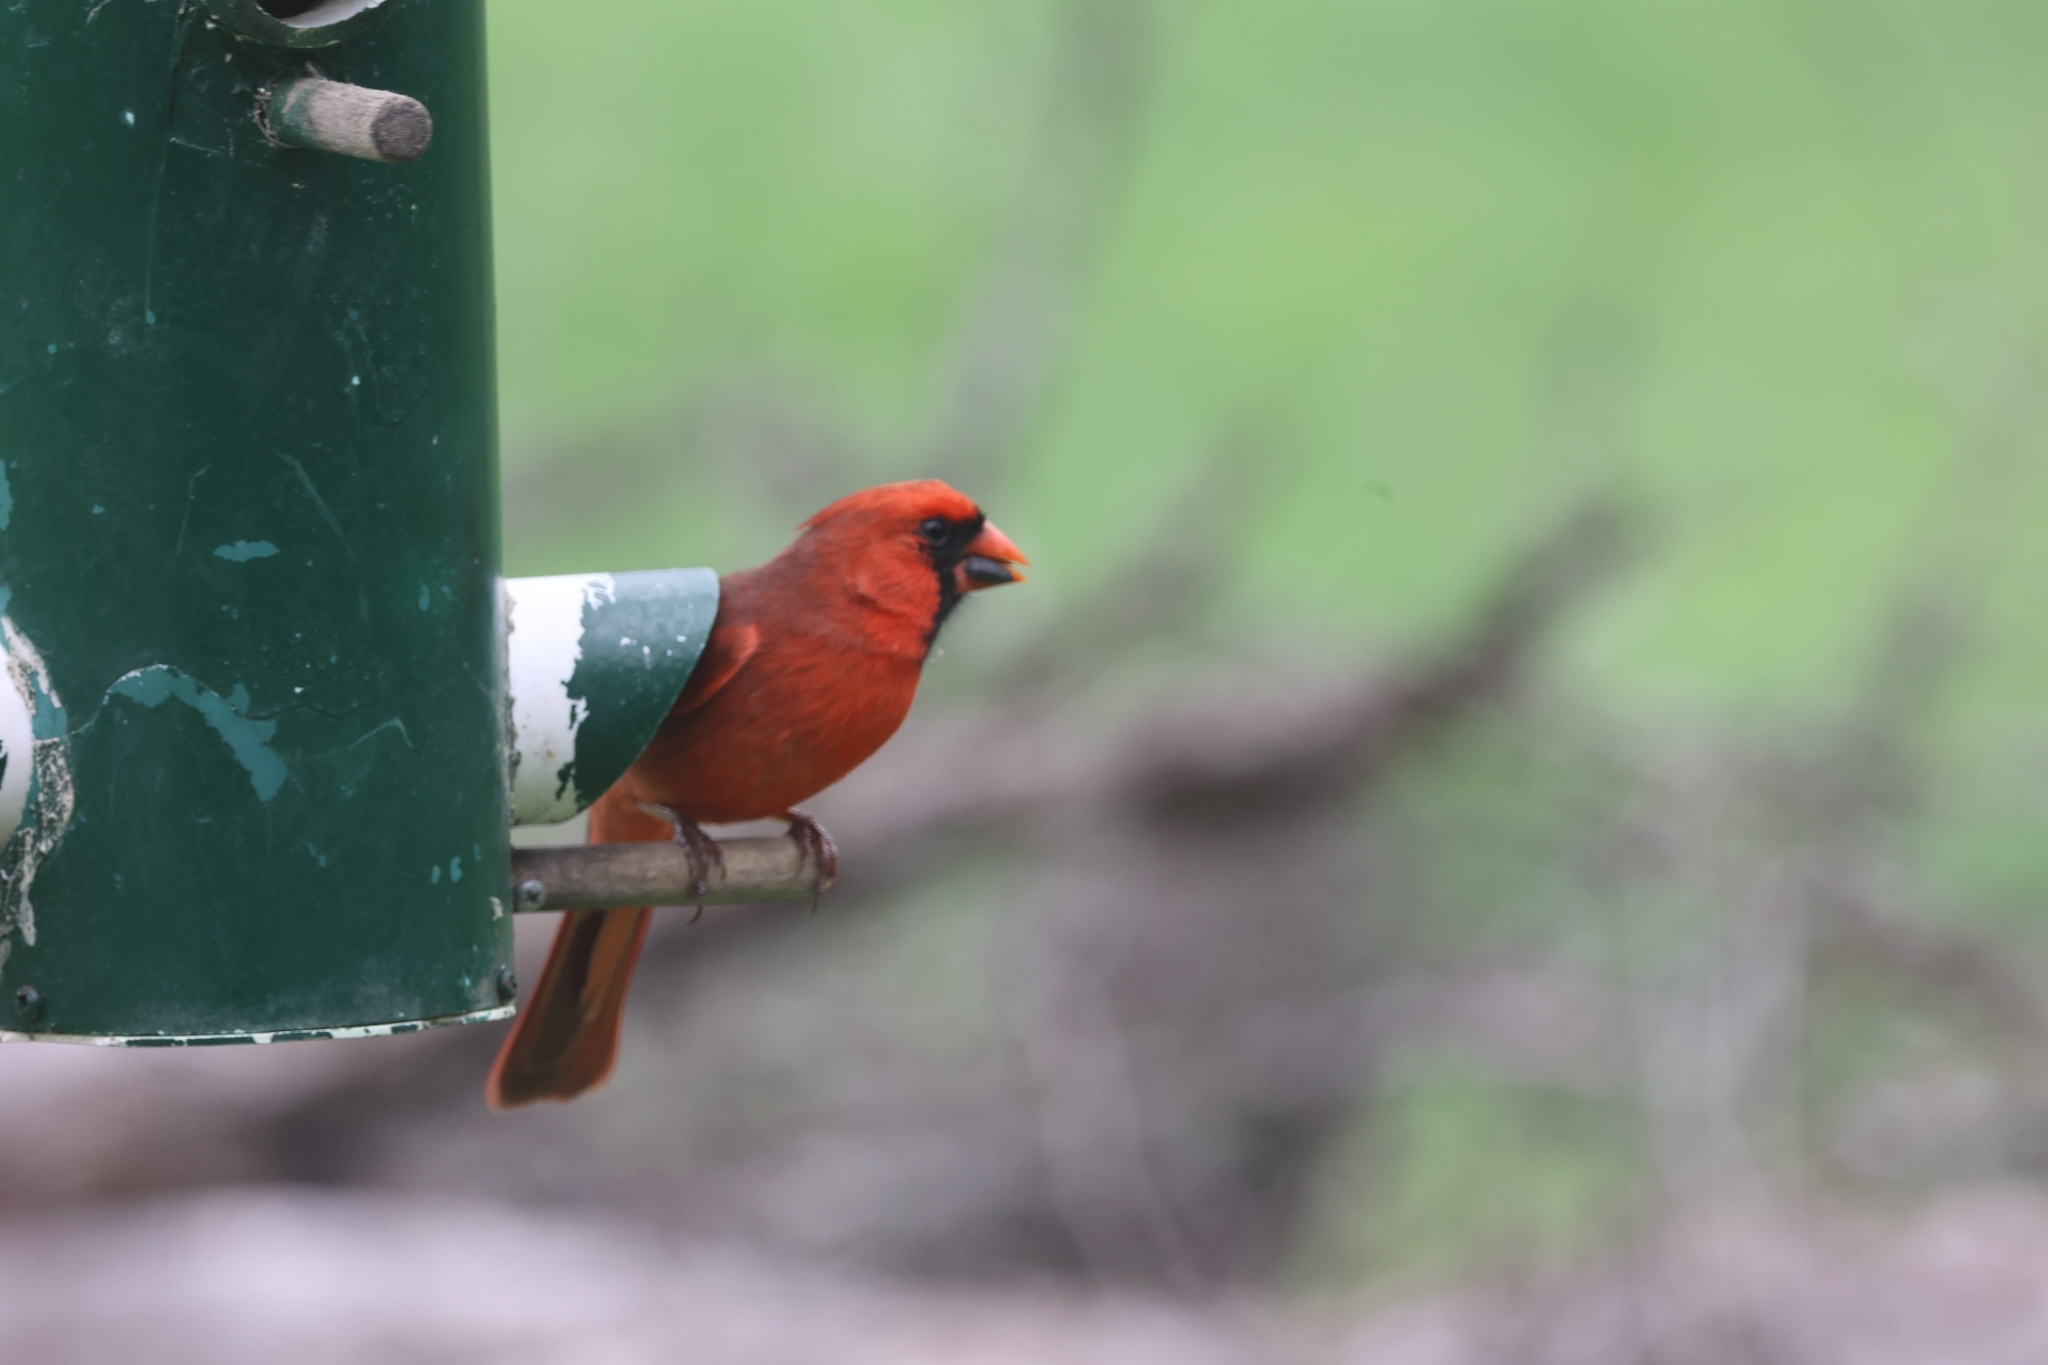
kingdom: Animalia
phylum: Chordata
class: Aves
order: Passeriformes
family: Cardinalidae
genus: Cardinalis
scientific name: Cardinalis cardinalis
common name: Northern cardinal
